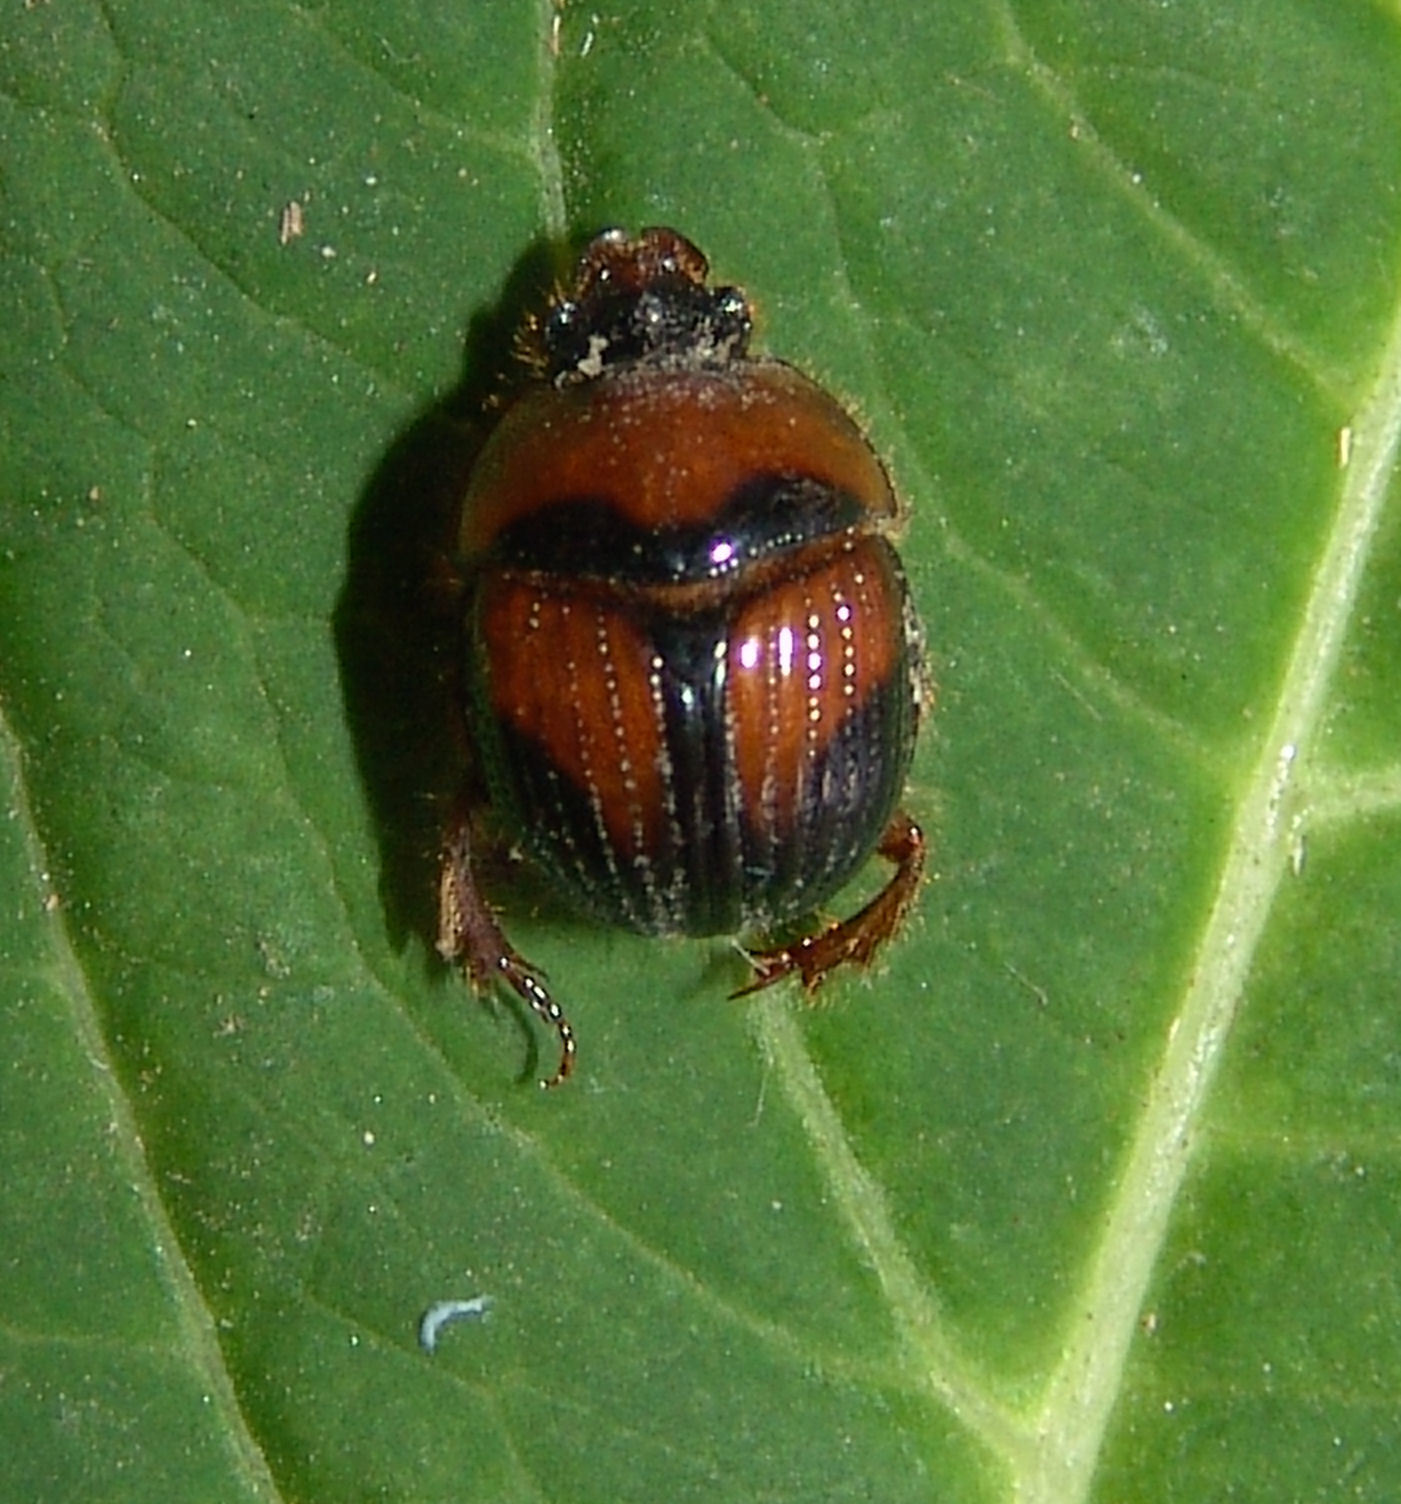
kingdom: Animalia
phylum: Arthropoda
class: Insecta
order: Coleoptera
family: Geotrupidae
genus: Bolbocerosoma
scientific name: Bolbocerosoma lepidissimum
